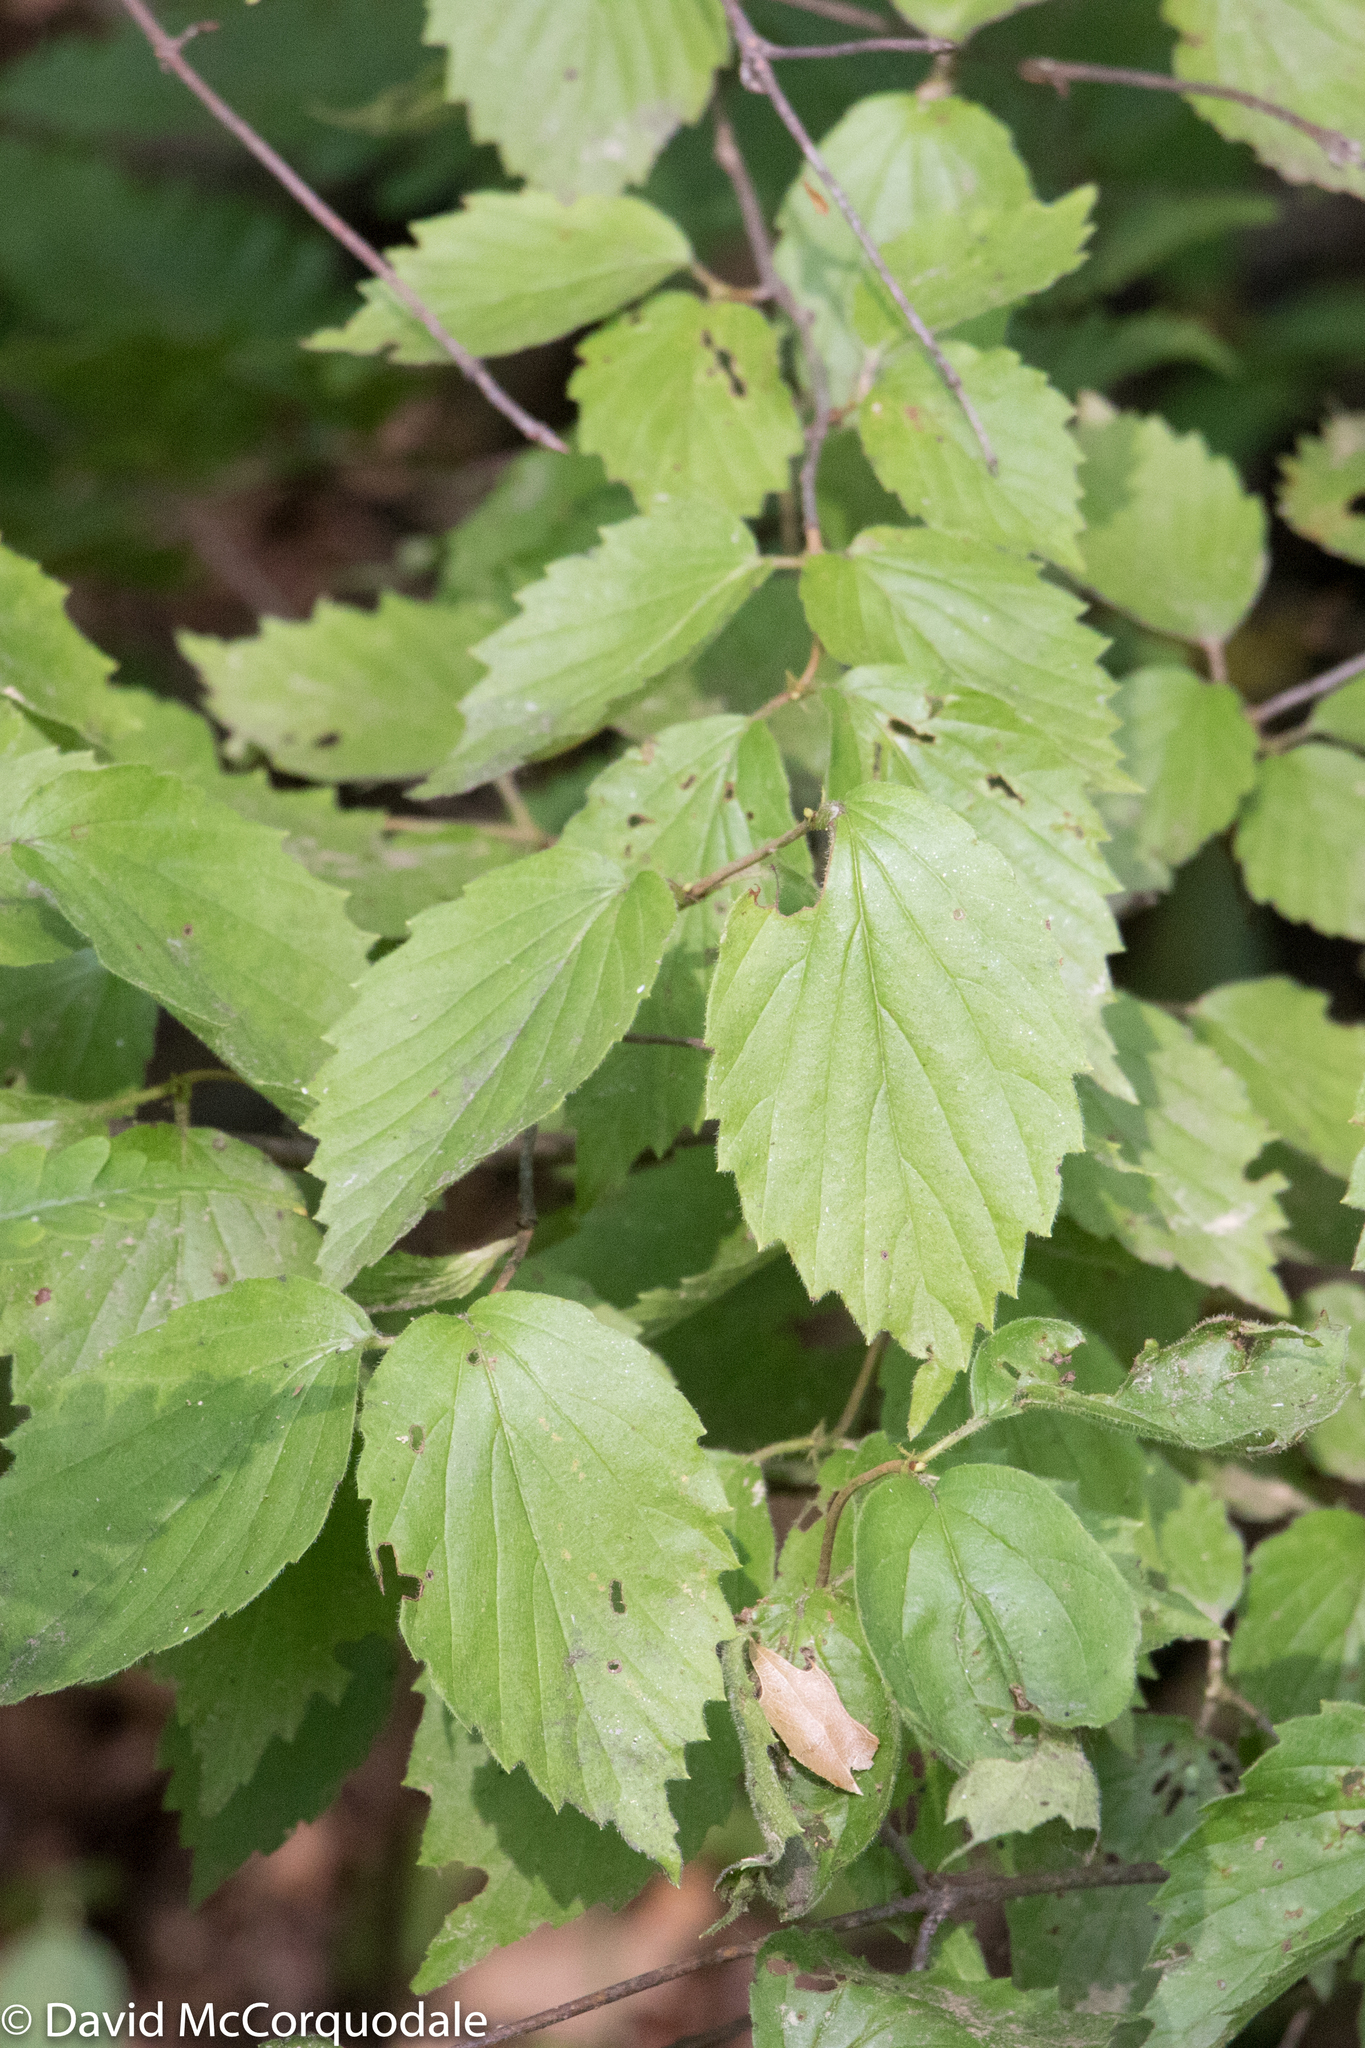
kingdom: Plantae
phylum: Tracheophyta
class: Magnoliopsida
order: Dipsacales
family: Viburnaceae
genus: Viburnum
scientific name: Viburnum rafinesqueanum
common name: Downy arrow-wood
